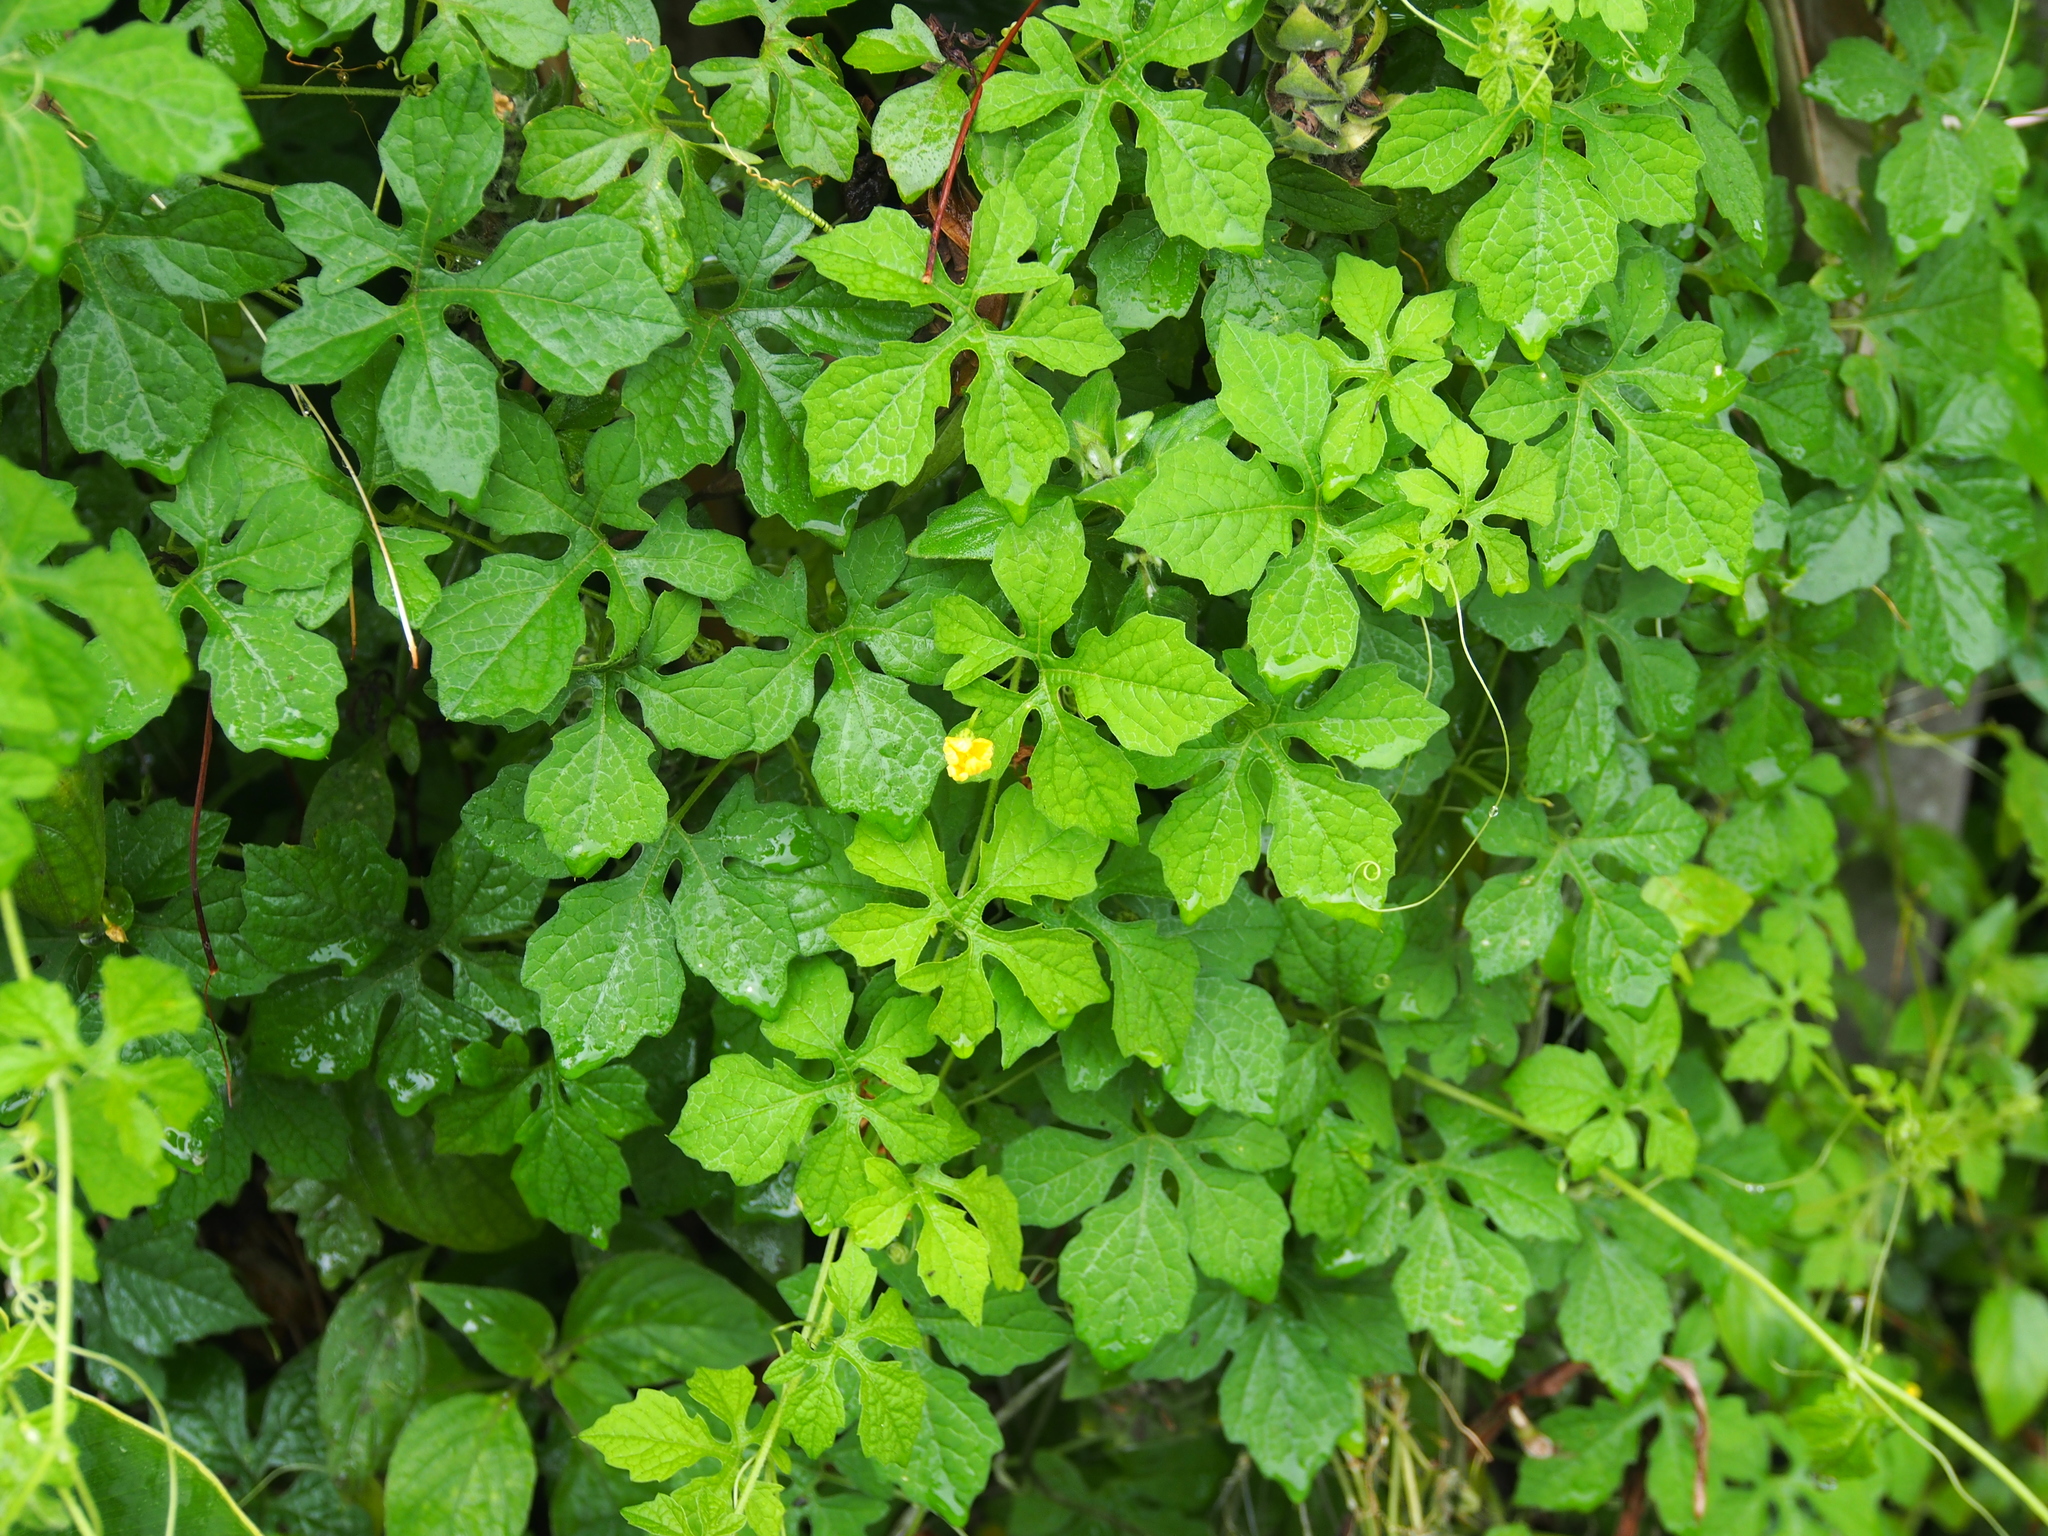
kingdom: Plantae
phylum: Tracheophyta
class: Magnoliopsida
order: Cucurbitales
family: Cucurbitaceae
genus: Momordica
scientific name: Momordica charantia
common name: Balsampear
